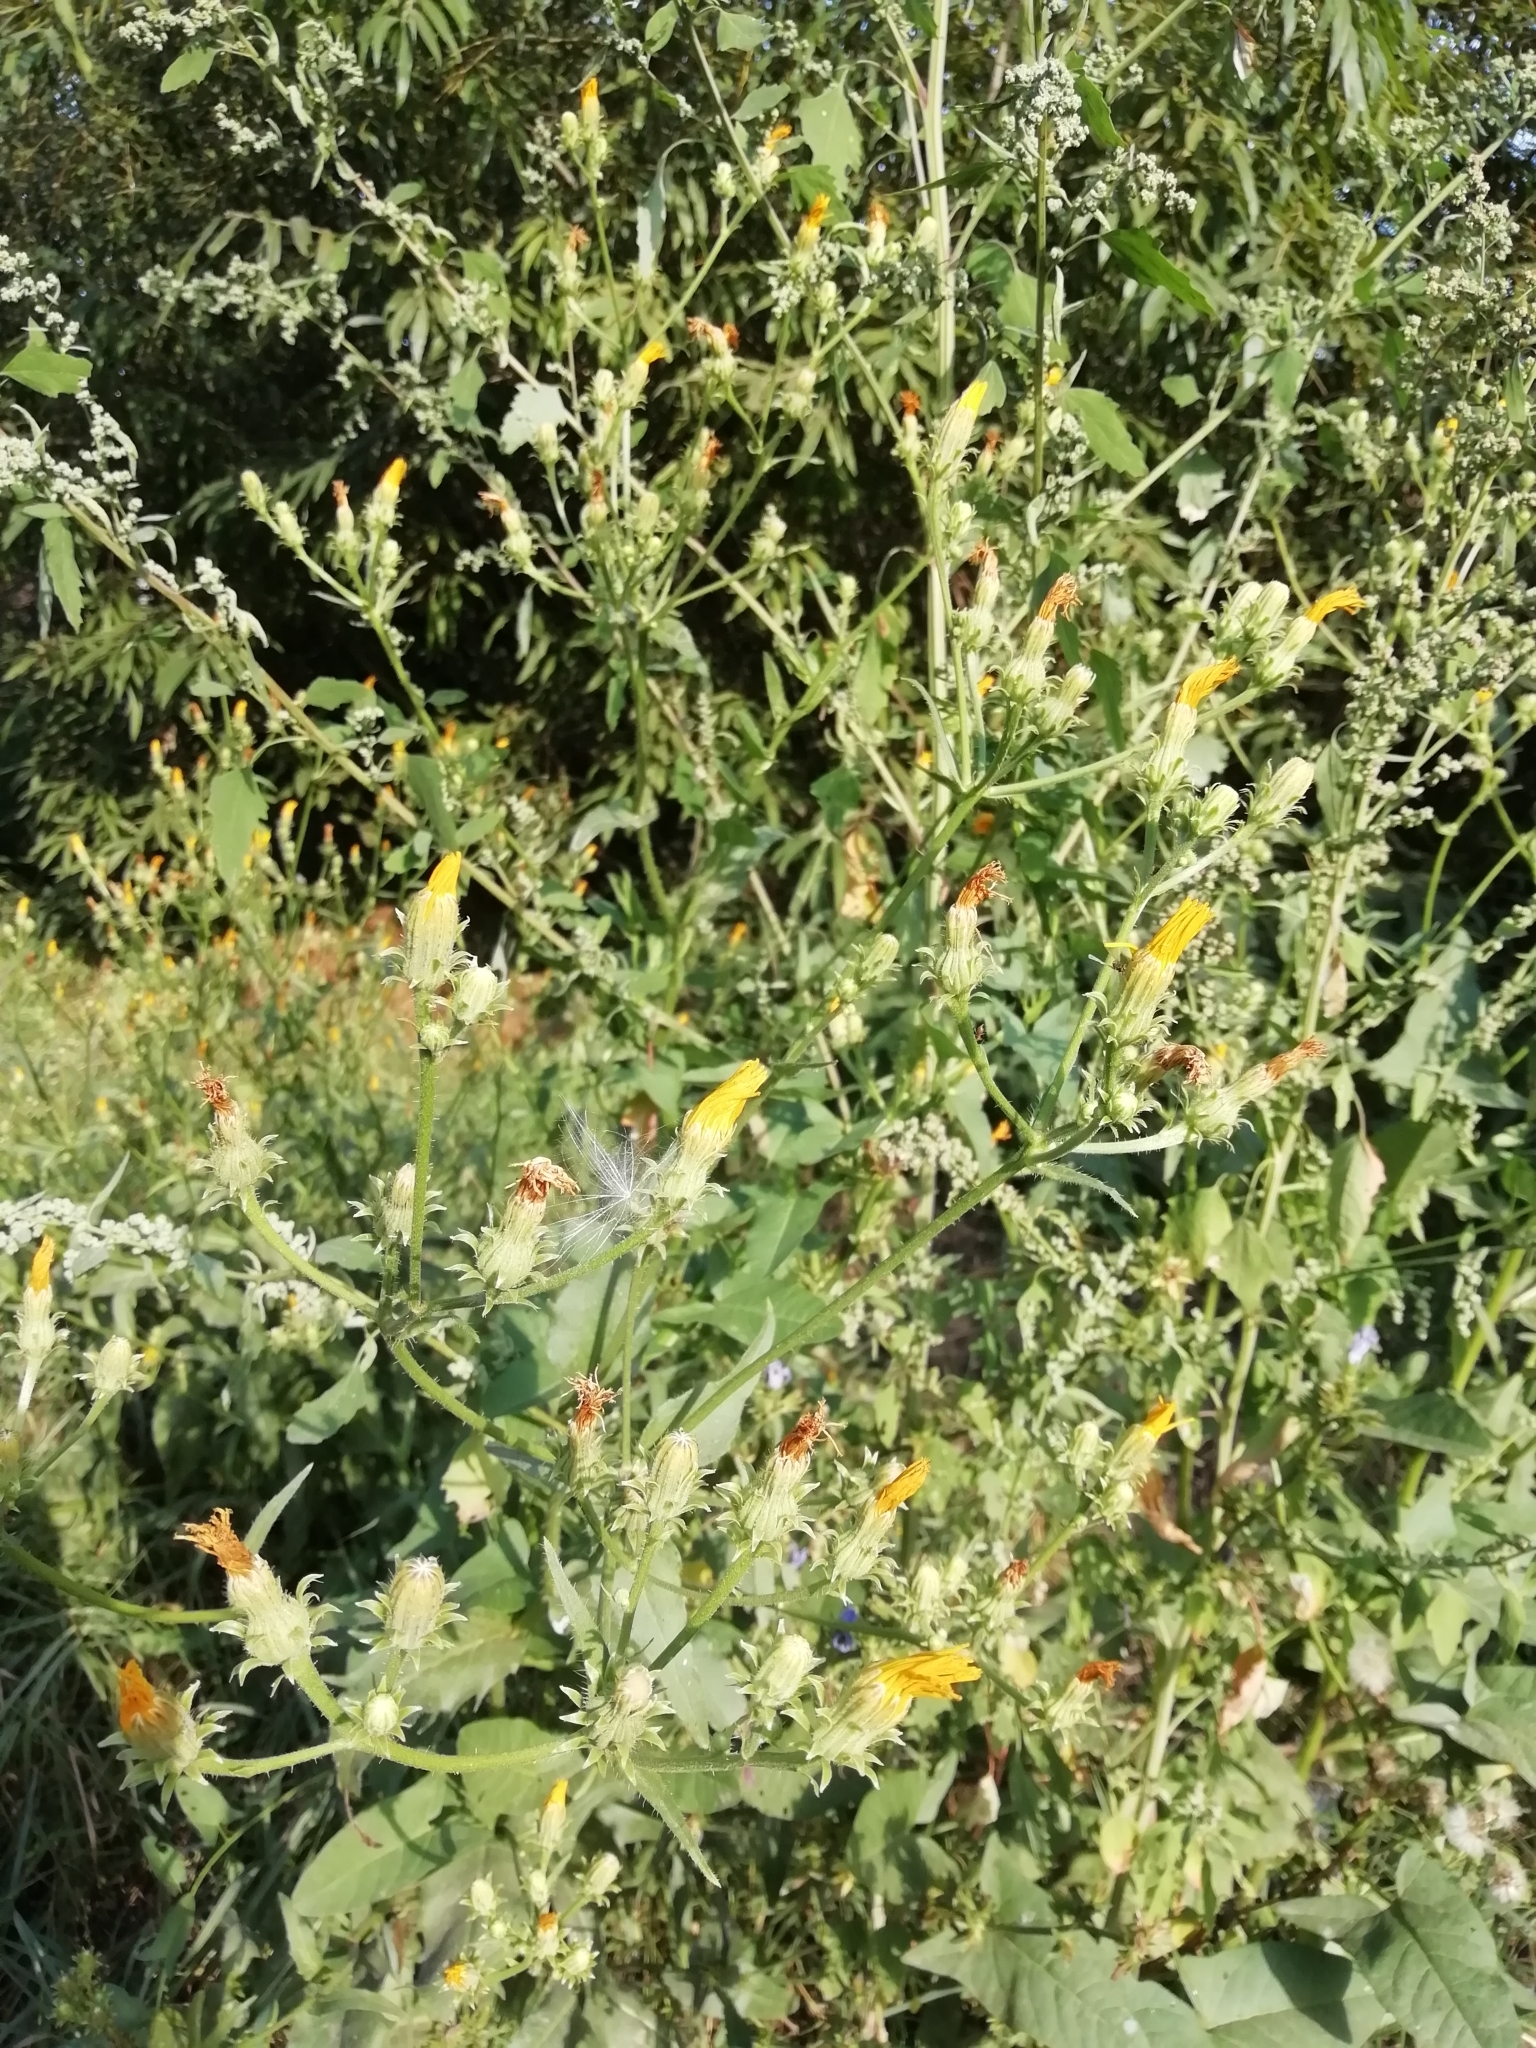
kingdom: Plantae
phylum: Tracheophyta
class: Magnoliopsida
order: Asterales
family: Asteraceae
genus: Picris
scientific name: Picris hieracioides
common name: Hawkweed oxtongue
